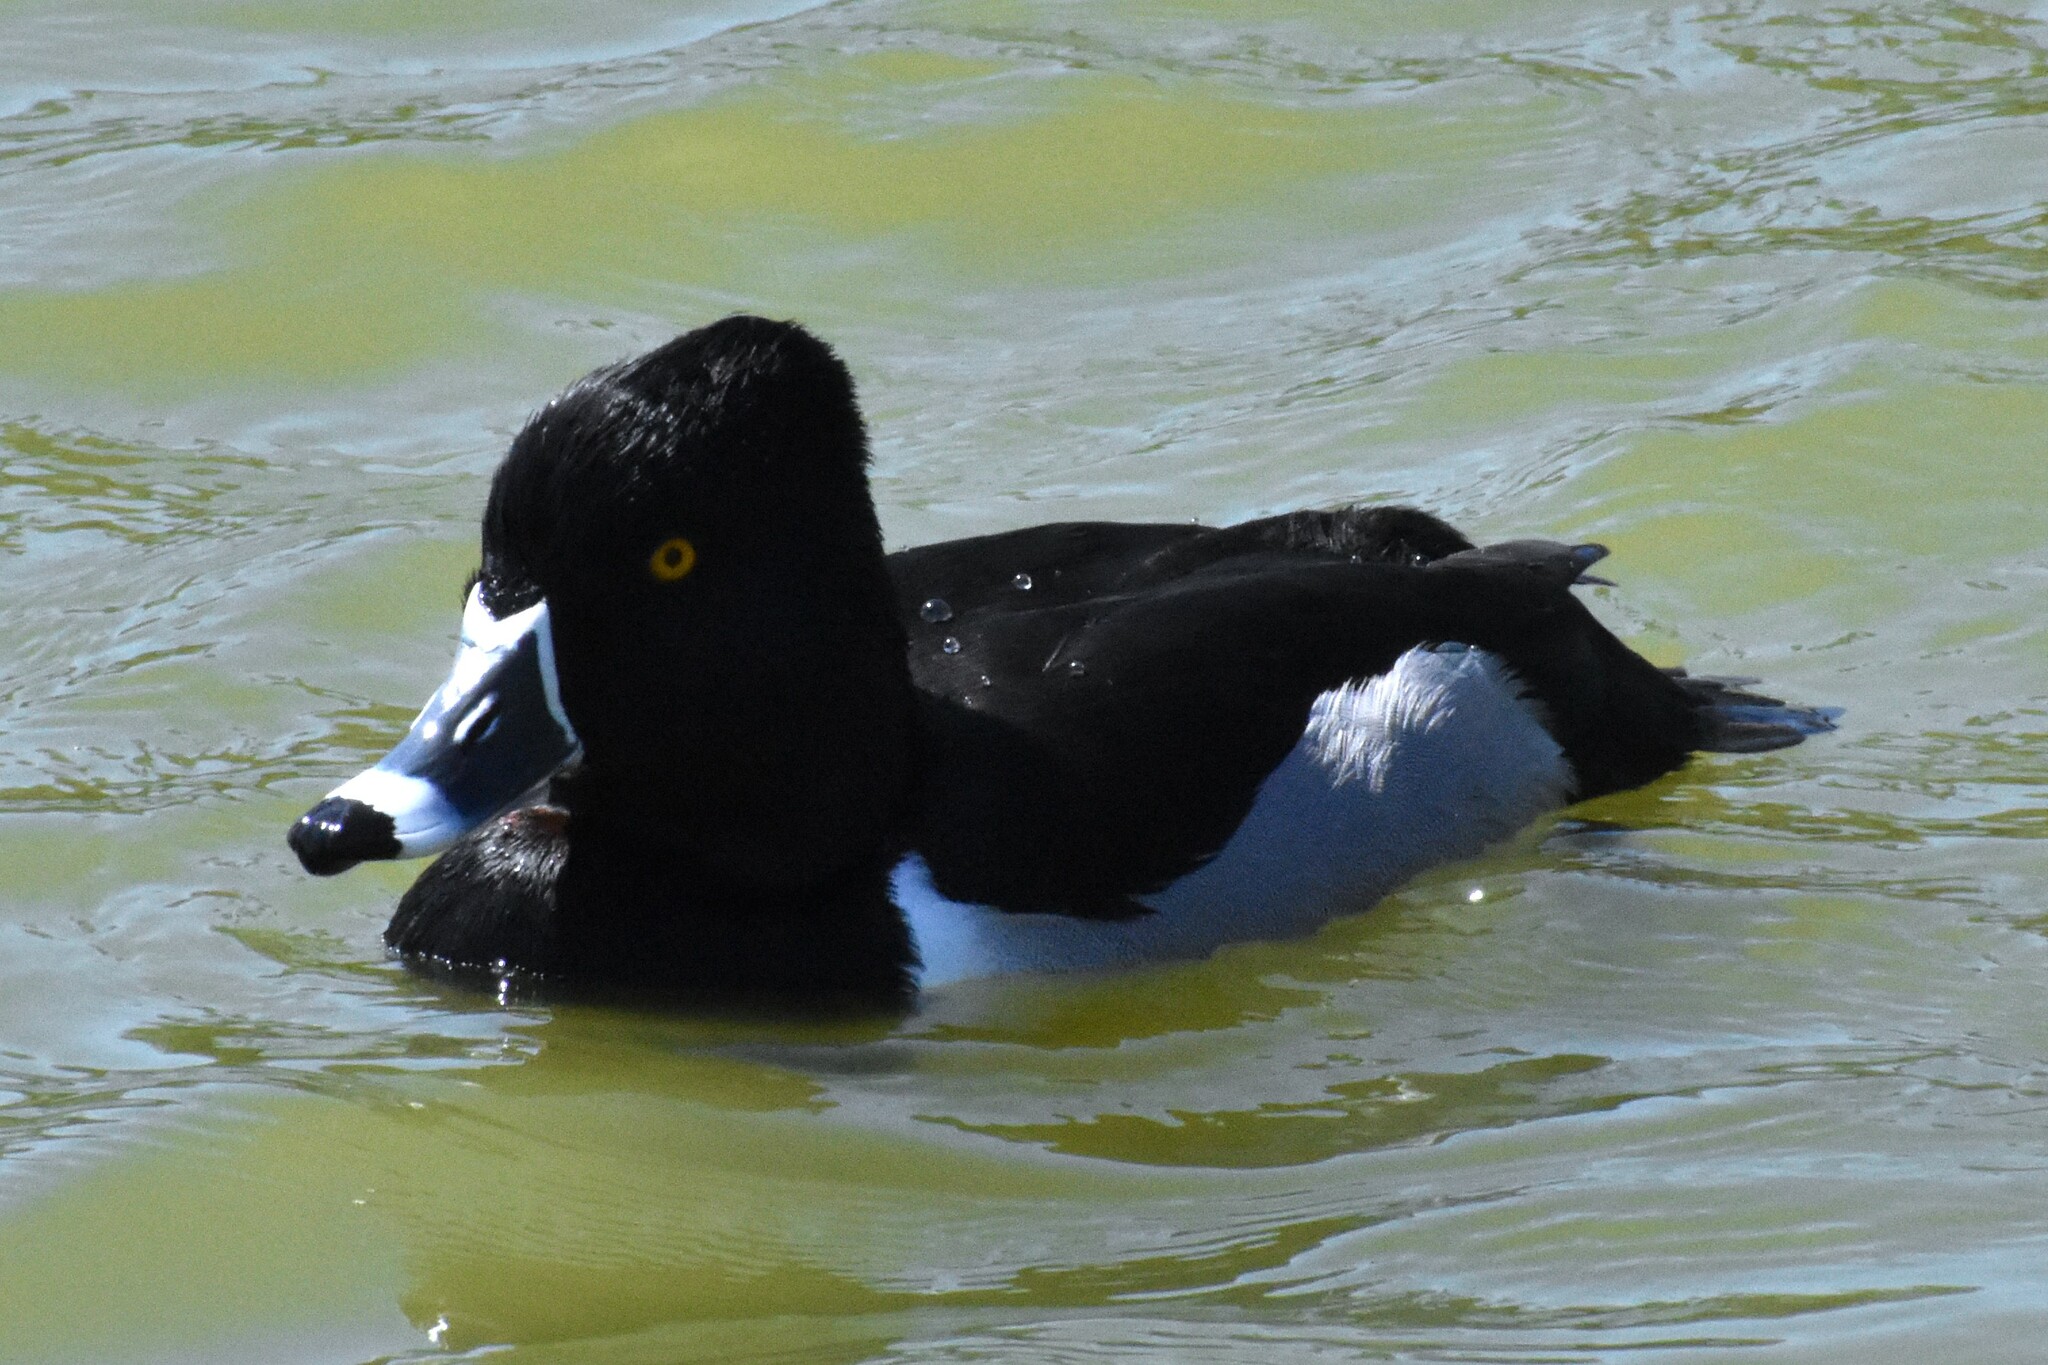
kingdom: Animalia
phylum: Chordata
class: Aves
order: Anseriformes
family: Anatidae
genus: Aythya
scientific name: Aythya collaris
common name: Ring-necked duck
